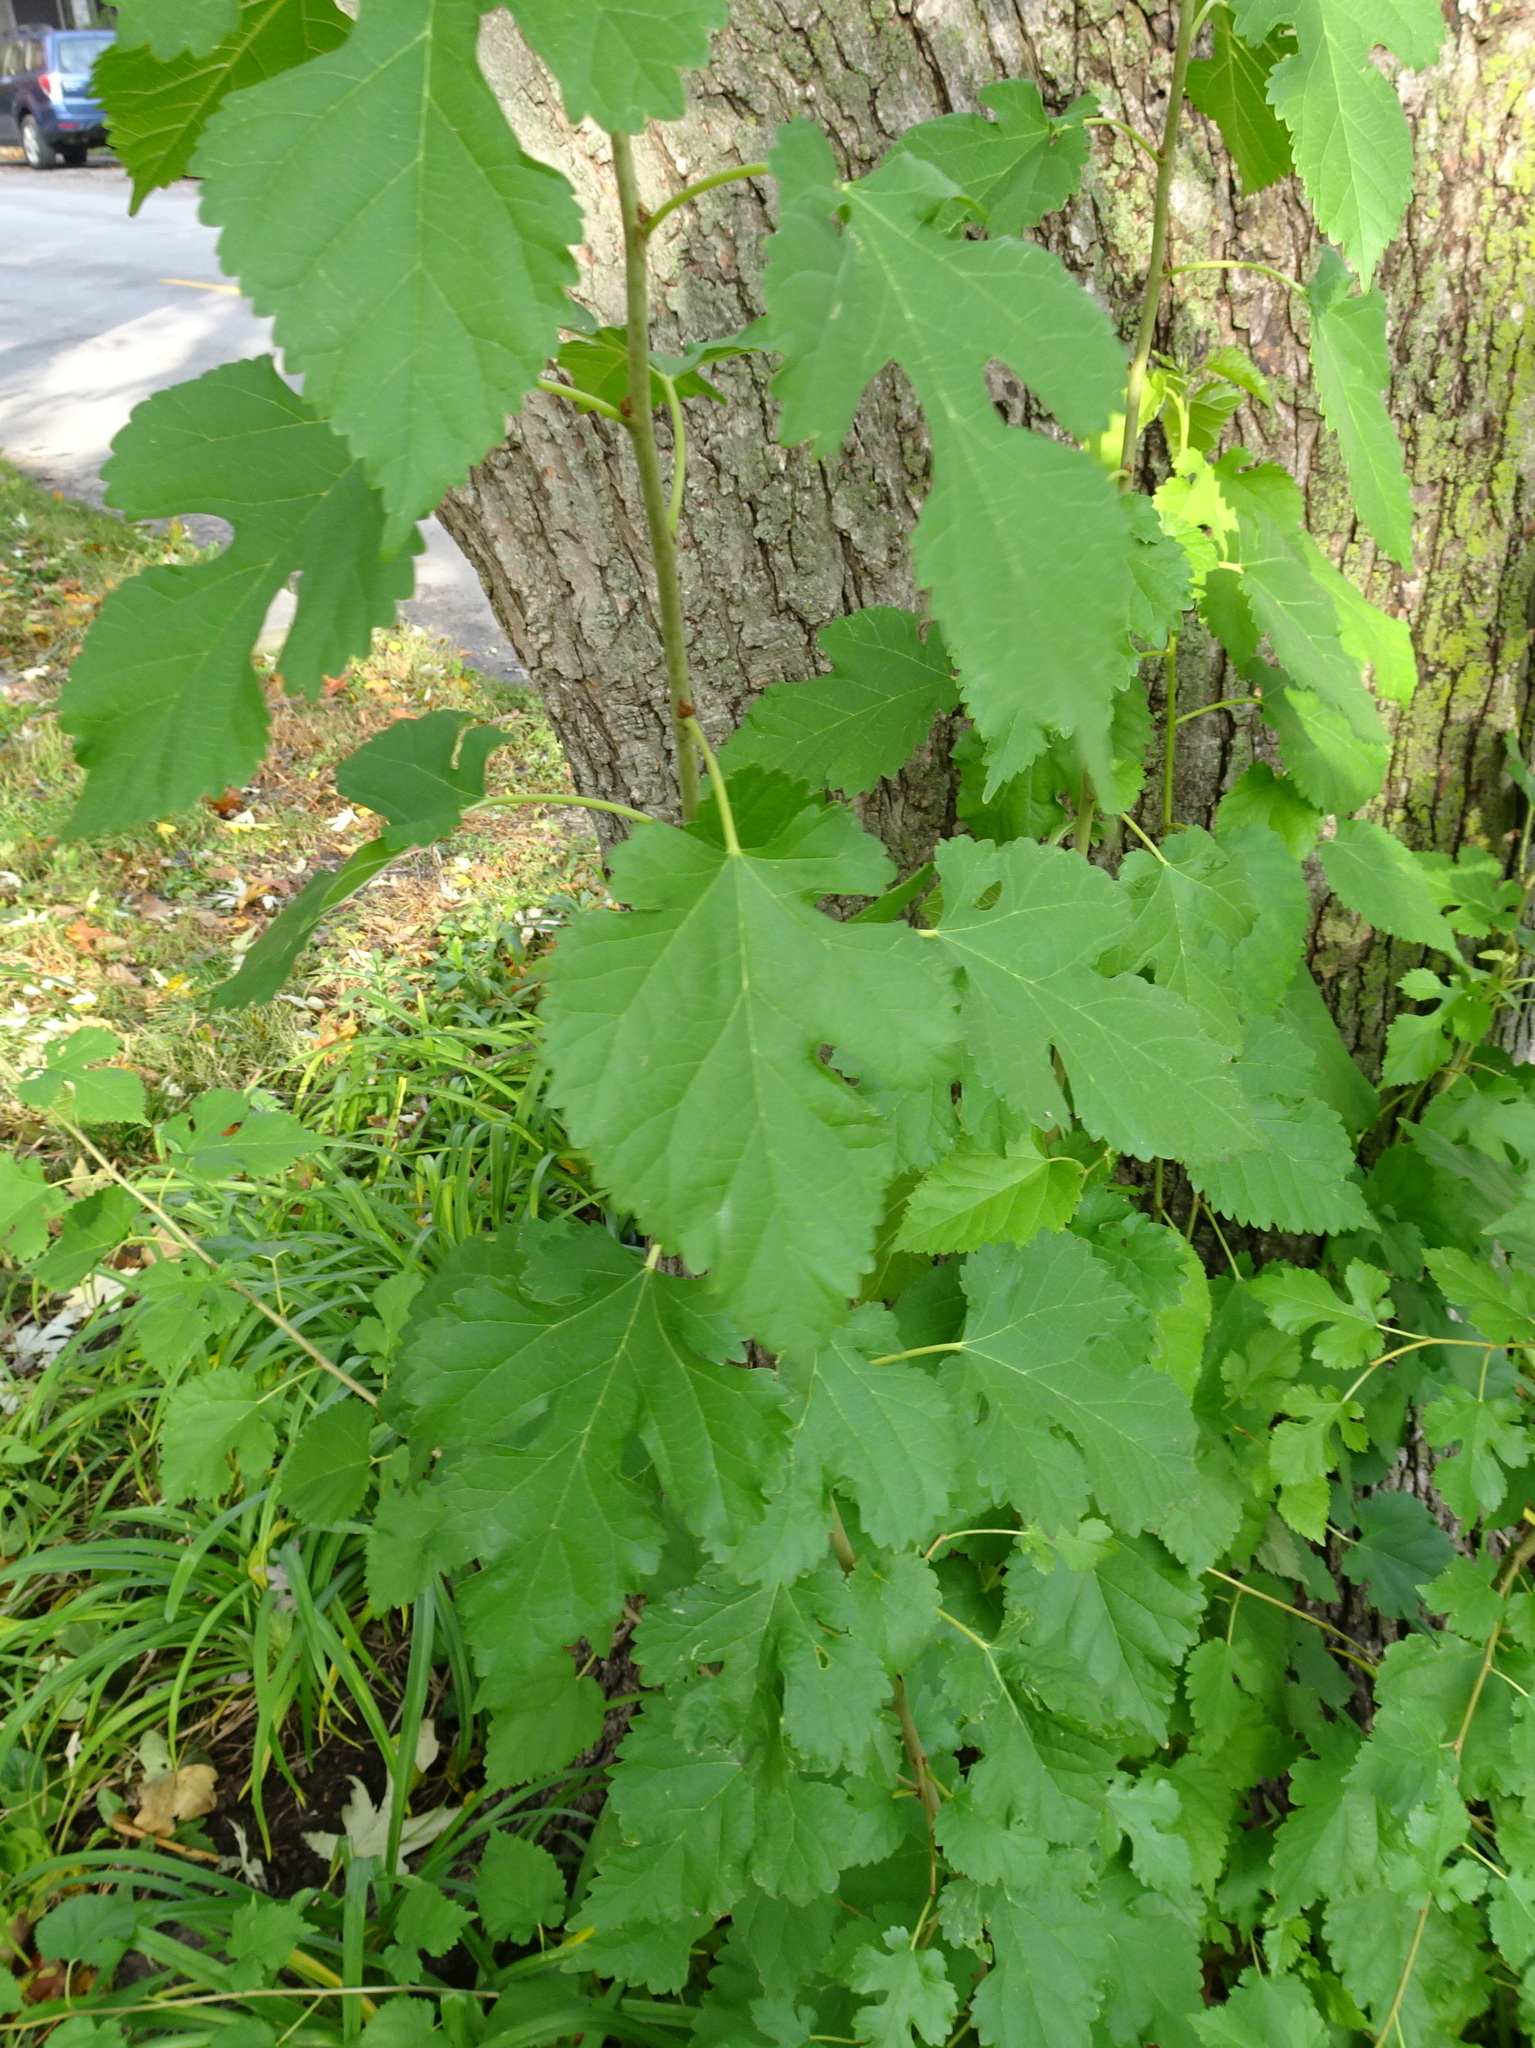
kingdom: Plantae
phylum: Tracheophyta
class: Magnoliopsida
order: Rosales
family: Moraceae
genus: Morus
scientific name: Morus alba
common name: White mulberry
